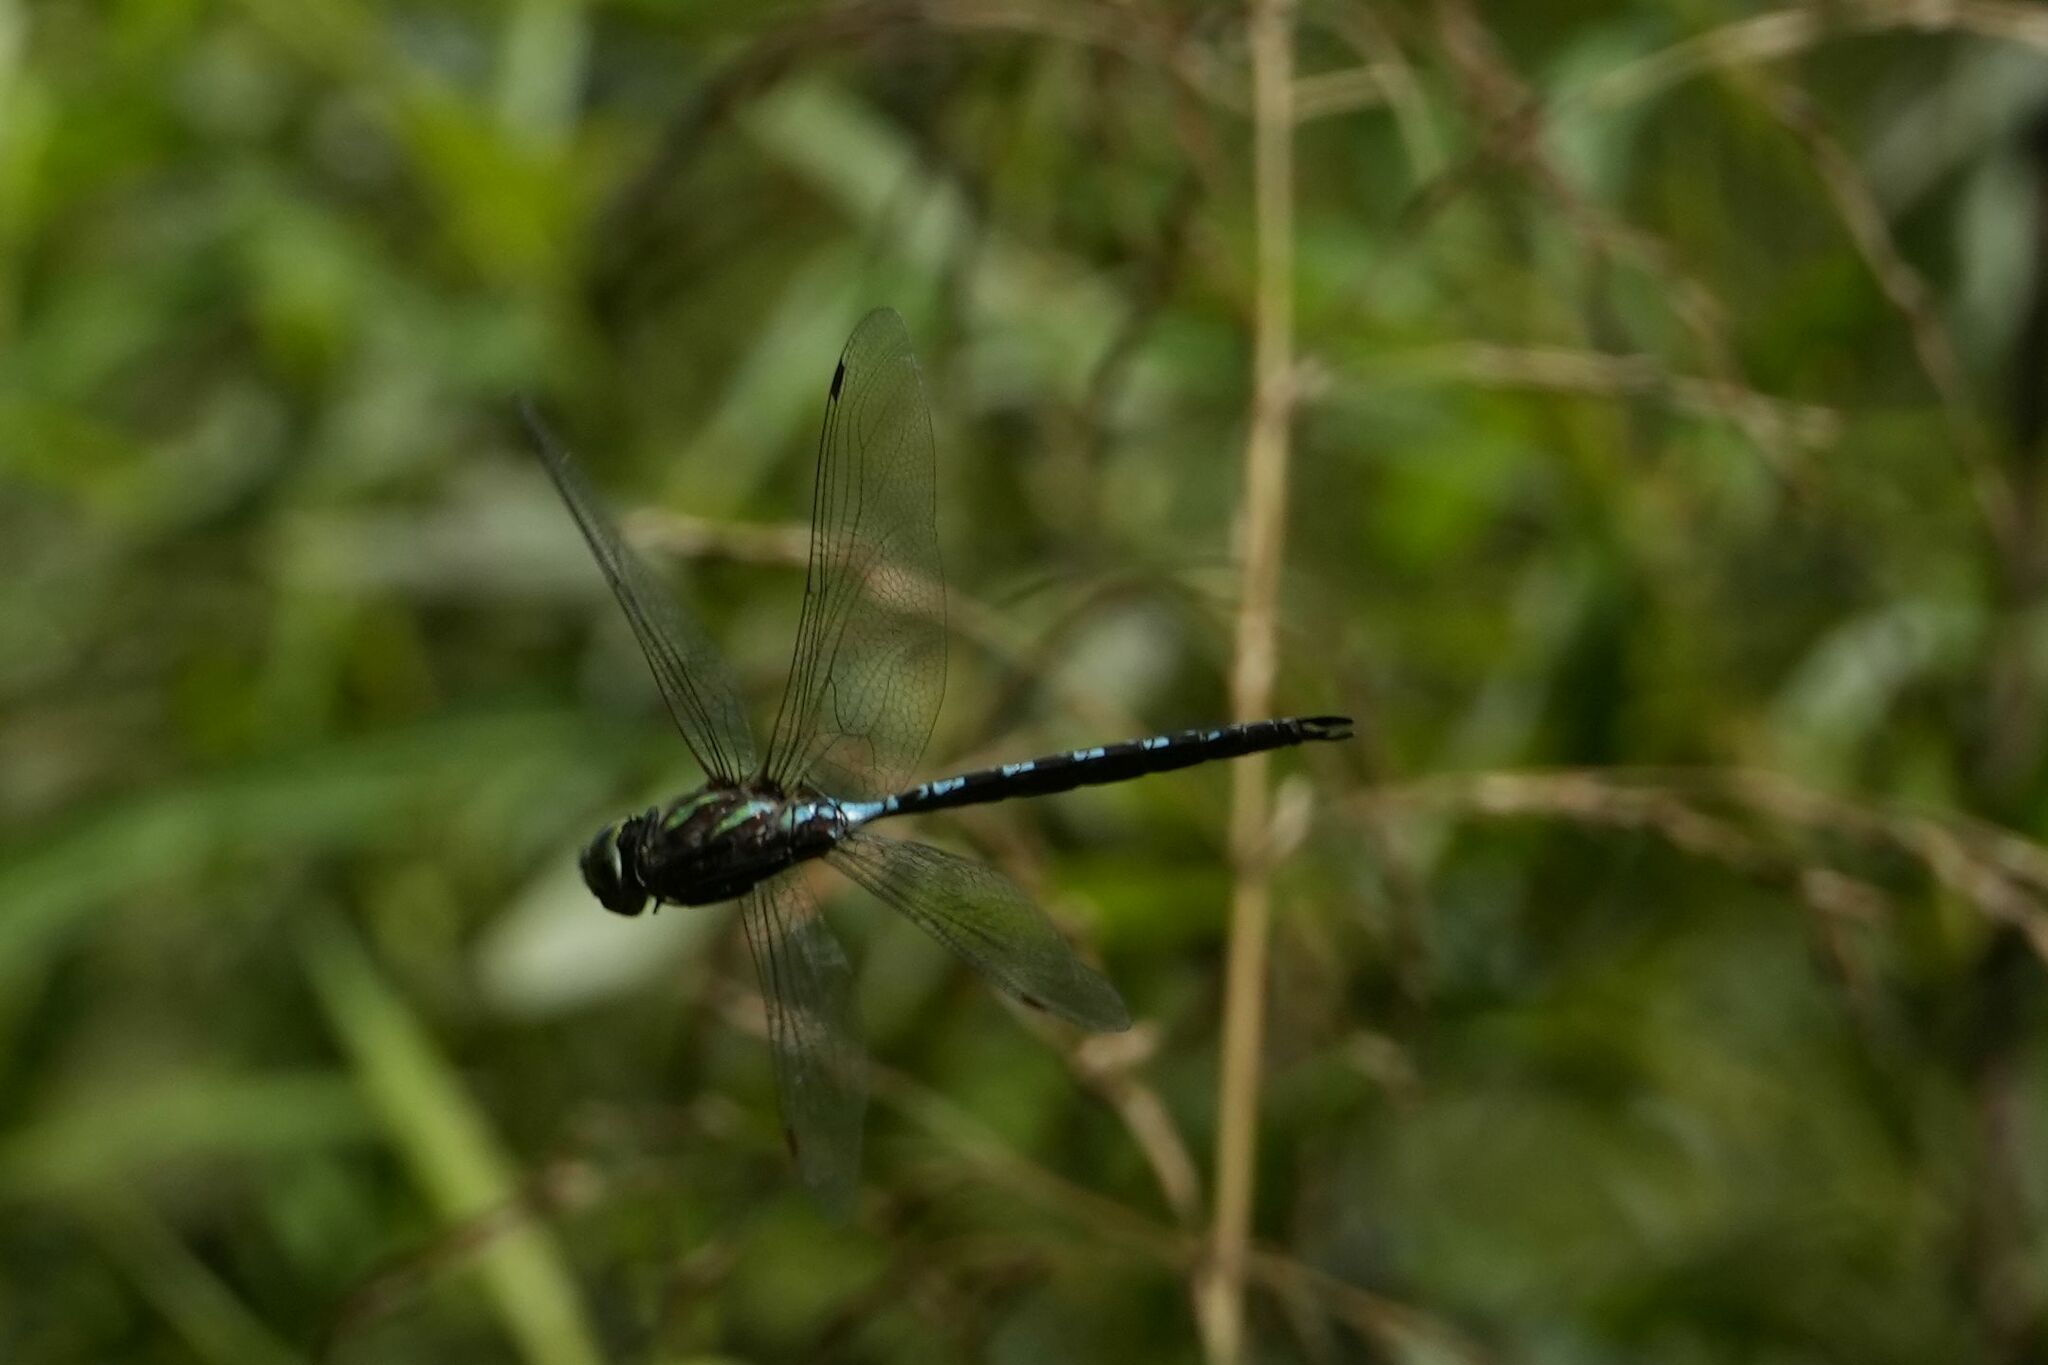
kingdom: Animalia
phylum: Arthropoda
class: Insecta
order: Odonata
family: Aeshnidae
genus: Aeshna
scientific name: Aeshna verticalis
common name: Green-striped darner
